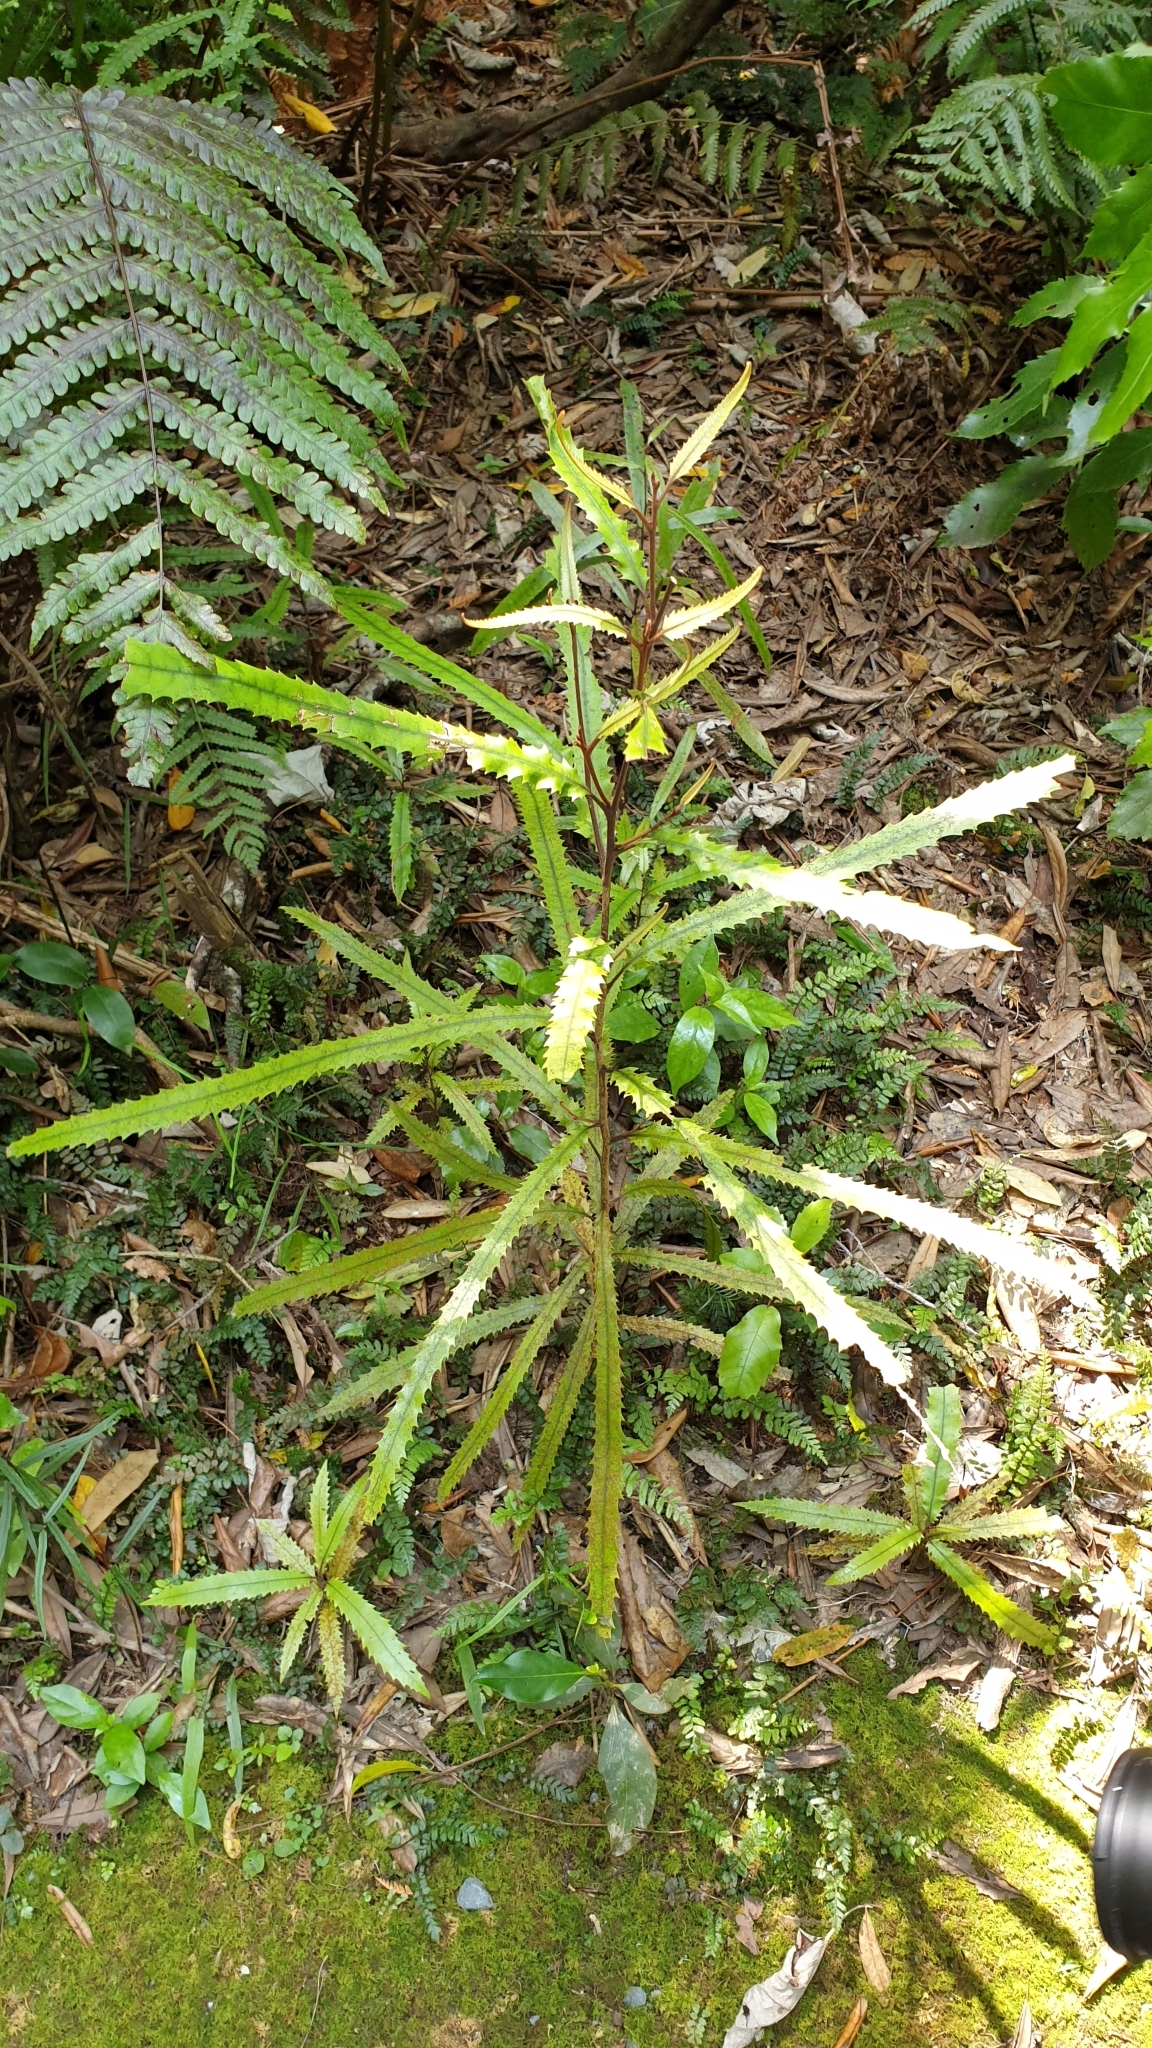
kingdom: Plantae
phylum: Tracheophyta
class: Magnoliopsida
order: Proteales
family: Proteaceae
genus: Knightia
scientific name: Knightia excelsa
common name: New zealand-honeysuckle
